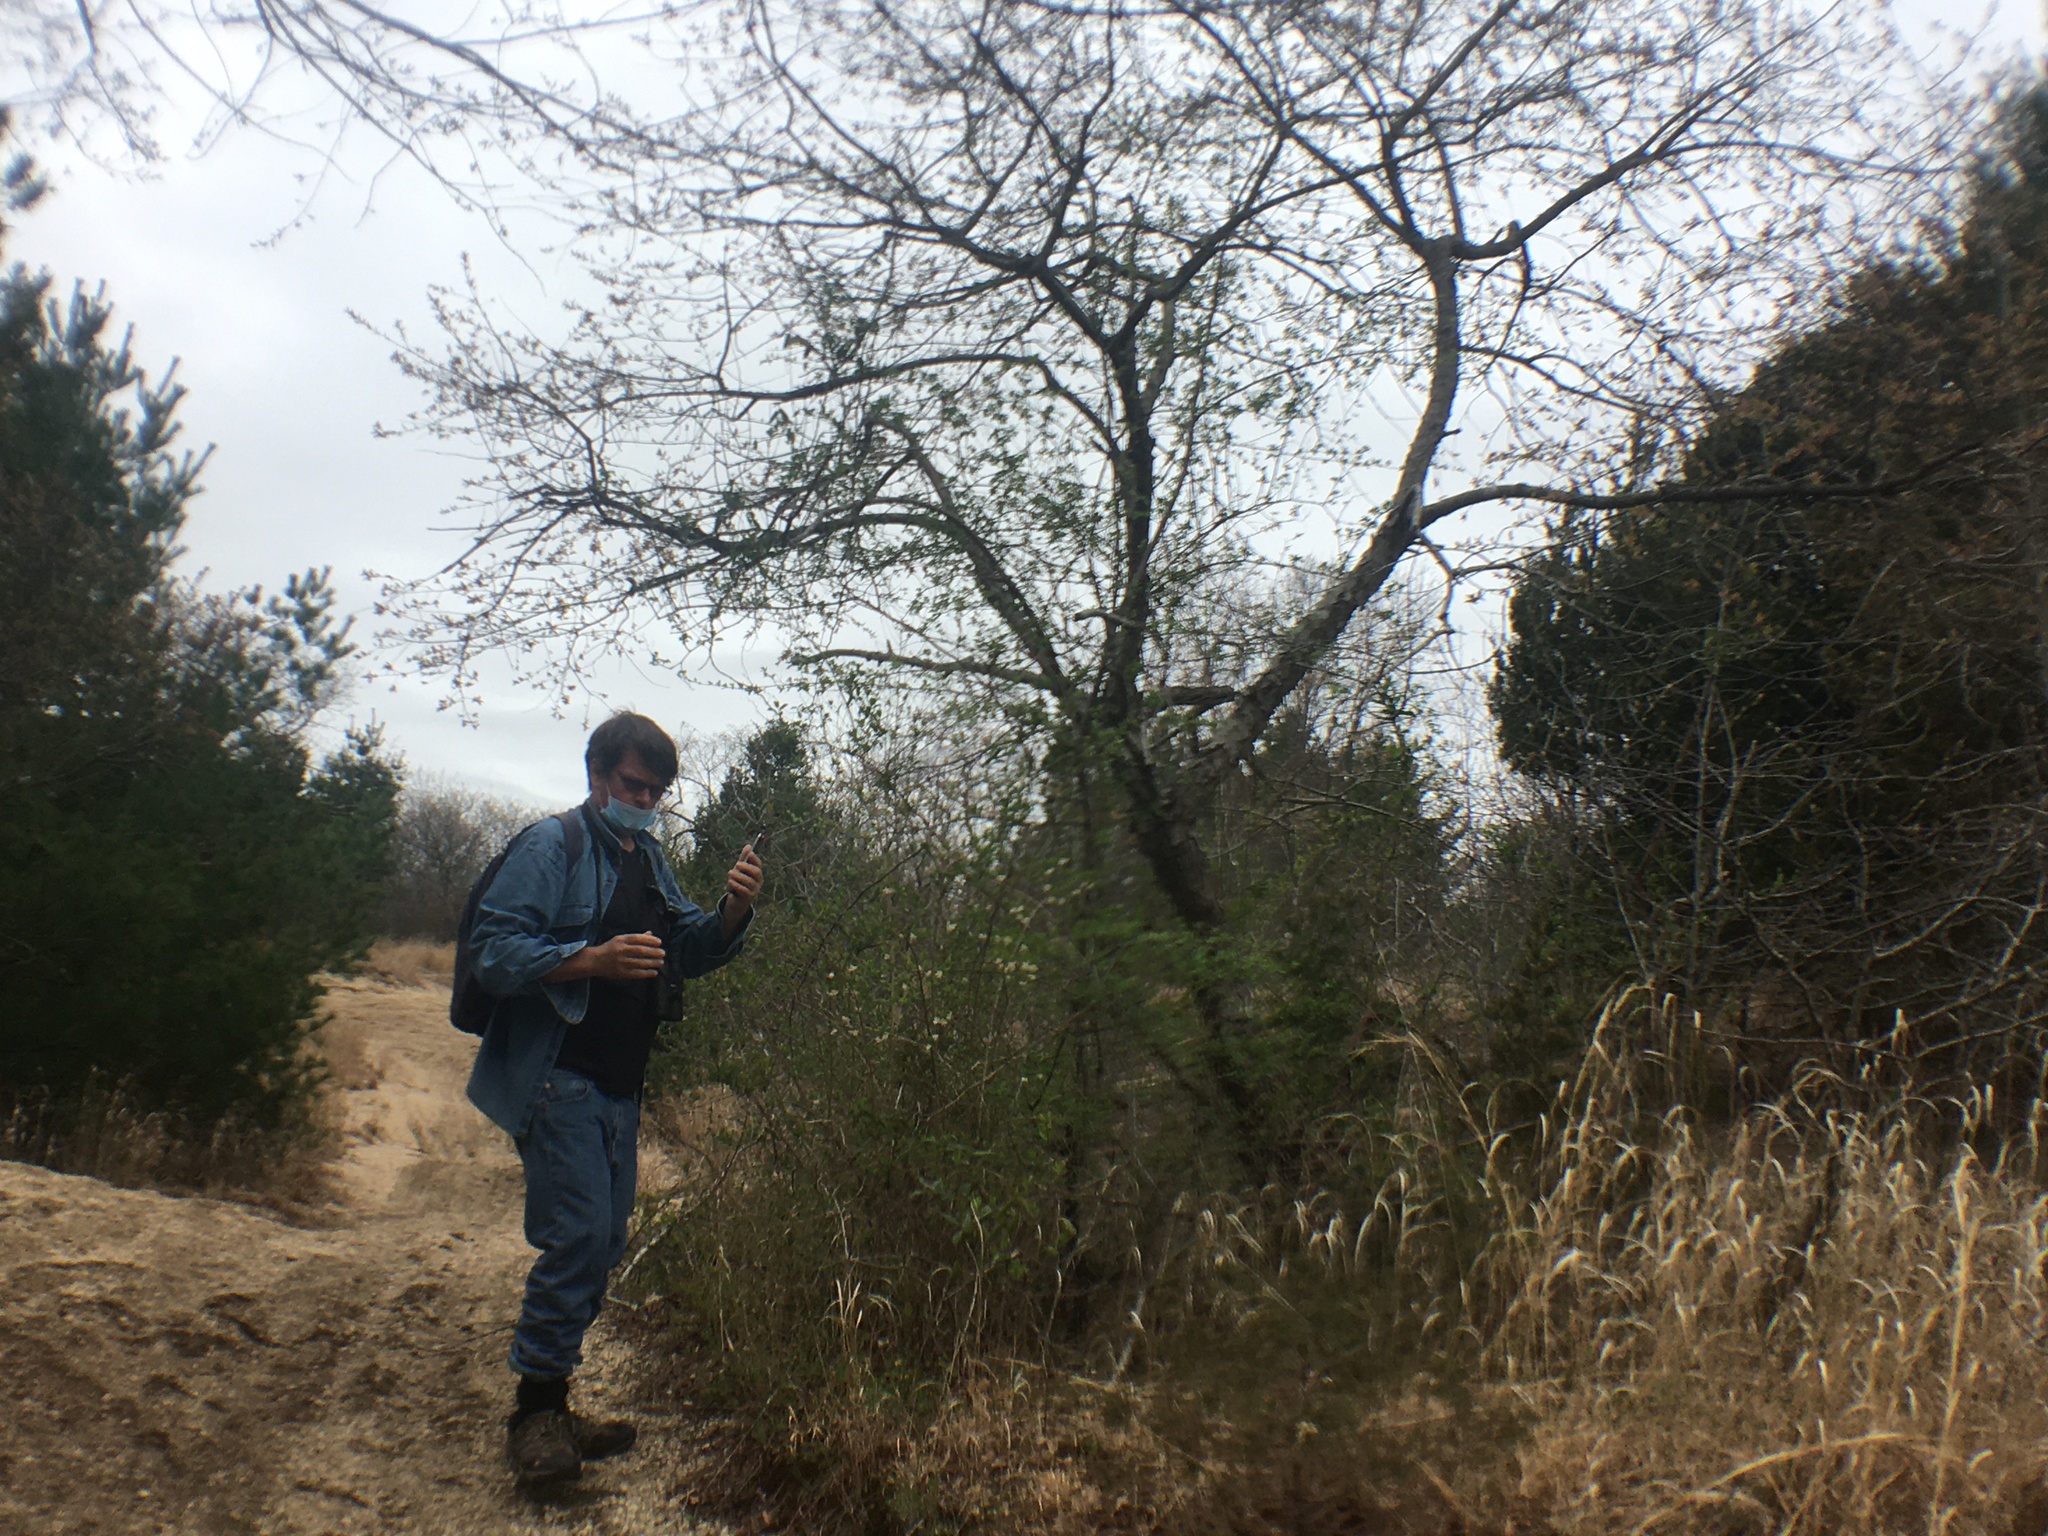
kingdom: Plantae
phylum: Tracheophyta
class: Magnoliopsida
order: Dipsacales
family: Caprifoliaceae
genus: Lonicera
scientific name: Lonicera fragrantissima
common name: Fragrant honeysuckle
